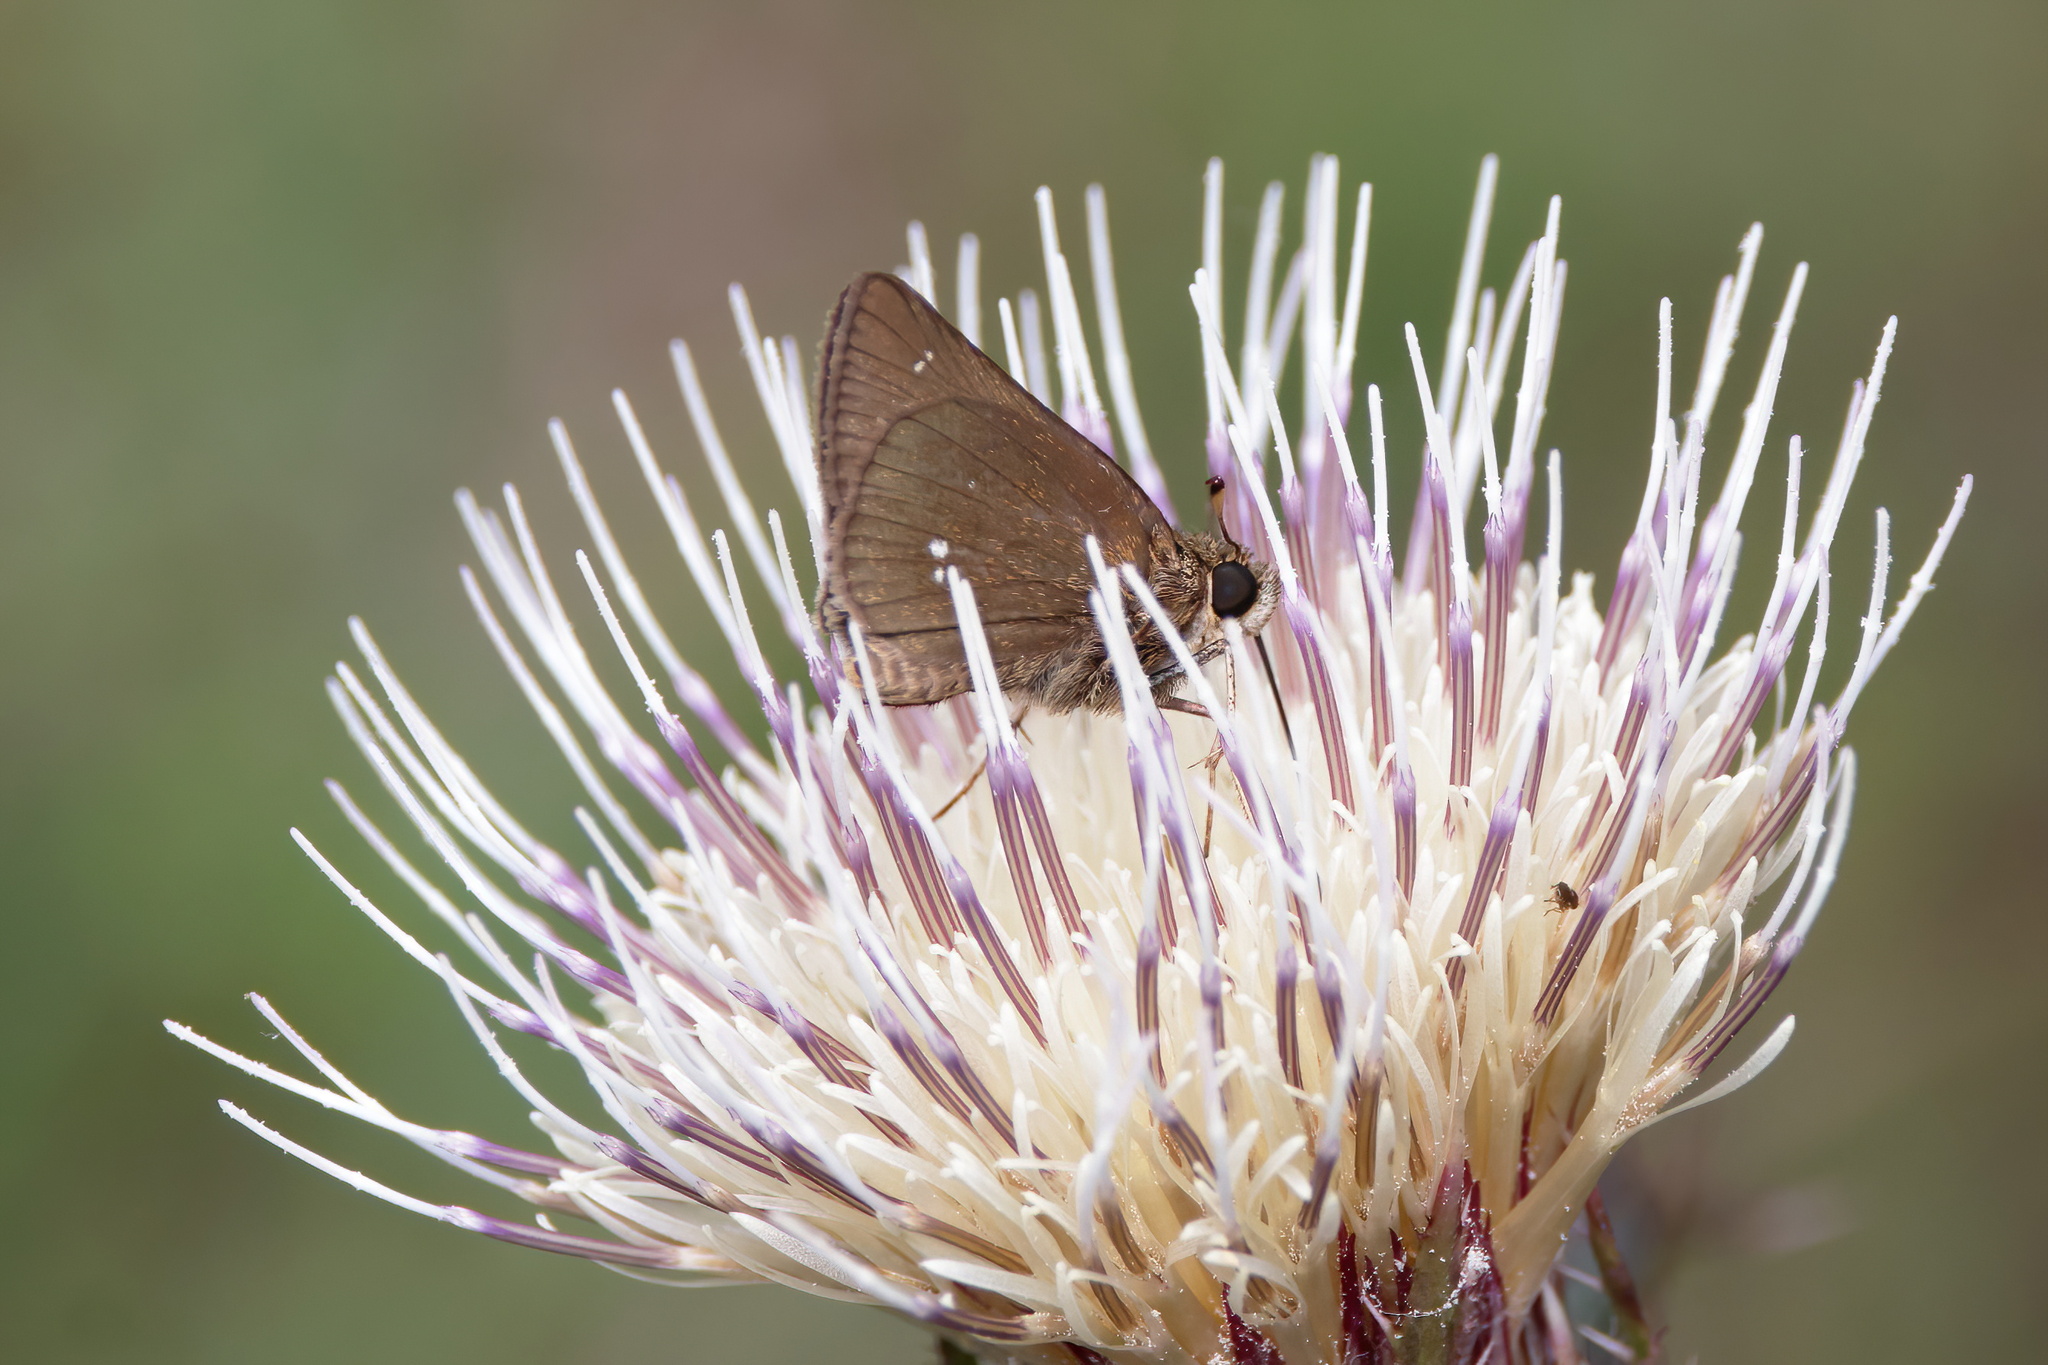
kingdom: Animalia
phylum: Arthropoda
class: Insecta
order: Lepidoptera
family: Hesperiidae
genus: Oligoria
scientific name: Oligoria maculata
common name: Twin-spot skipper
